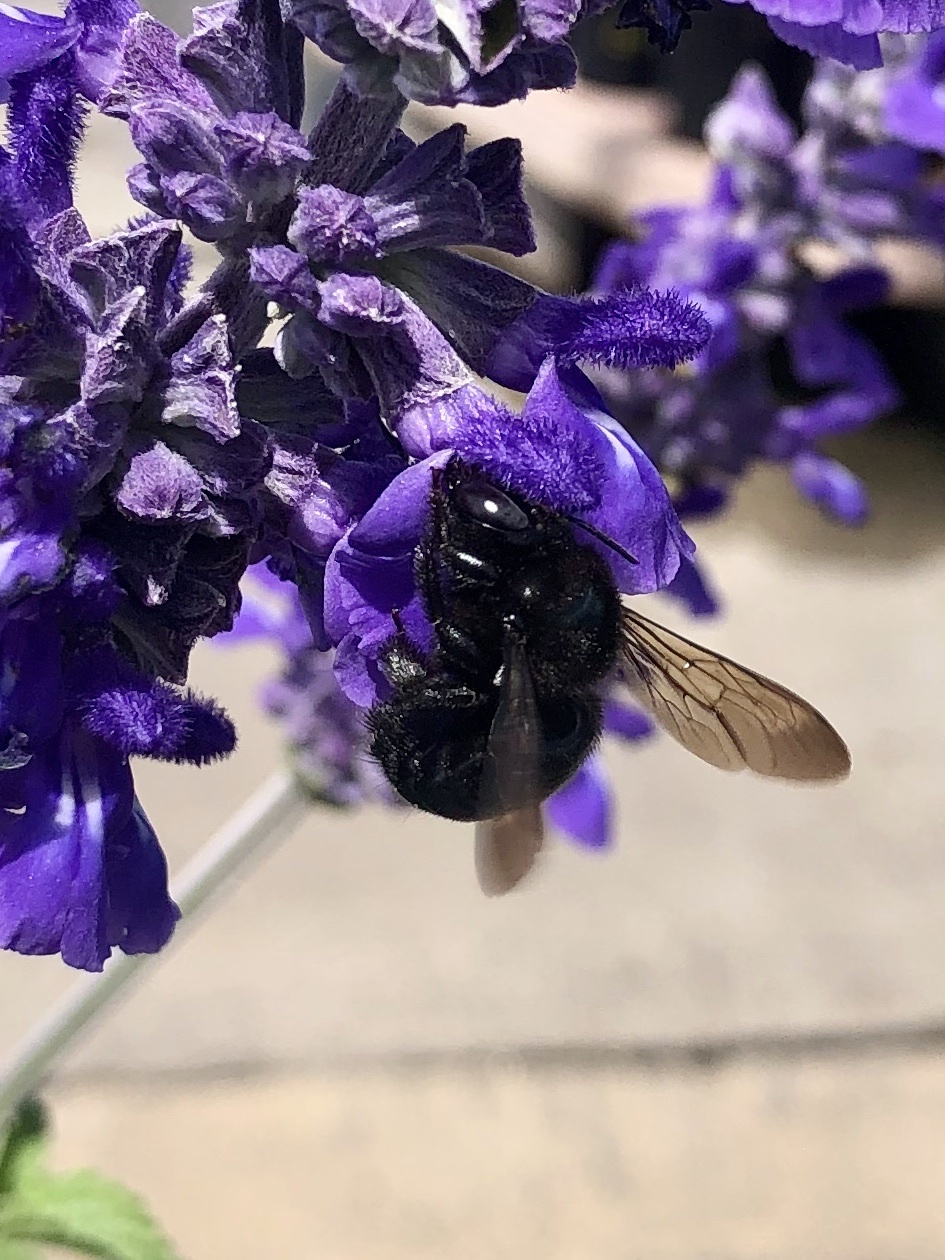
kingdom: Animalia
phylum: Arthropoda
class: Insecta
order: Hymenoptera
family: Apidae
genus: Xylocopa
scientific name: Xylocopa tabaniformis
